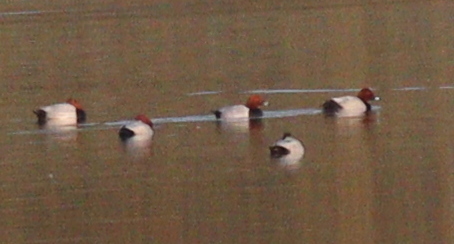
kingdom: Animalia
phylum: Chordata
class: Aves
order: Anseriformes
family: Anatidae
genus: Aythya
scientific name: Aythya ferina
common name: Common pochard
